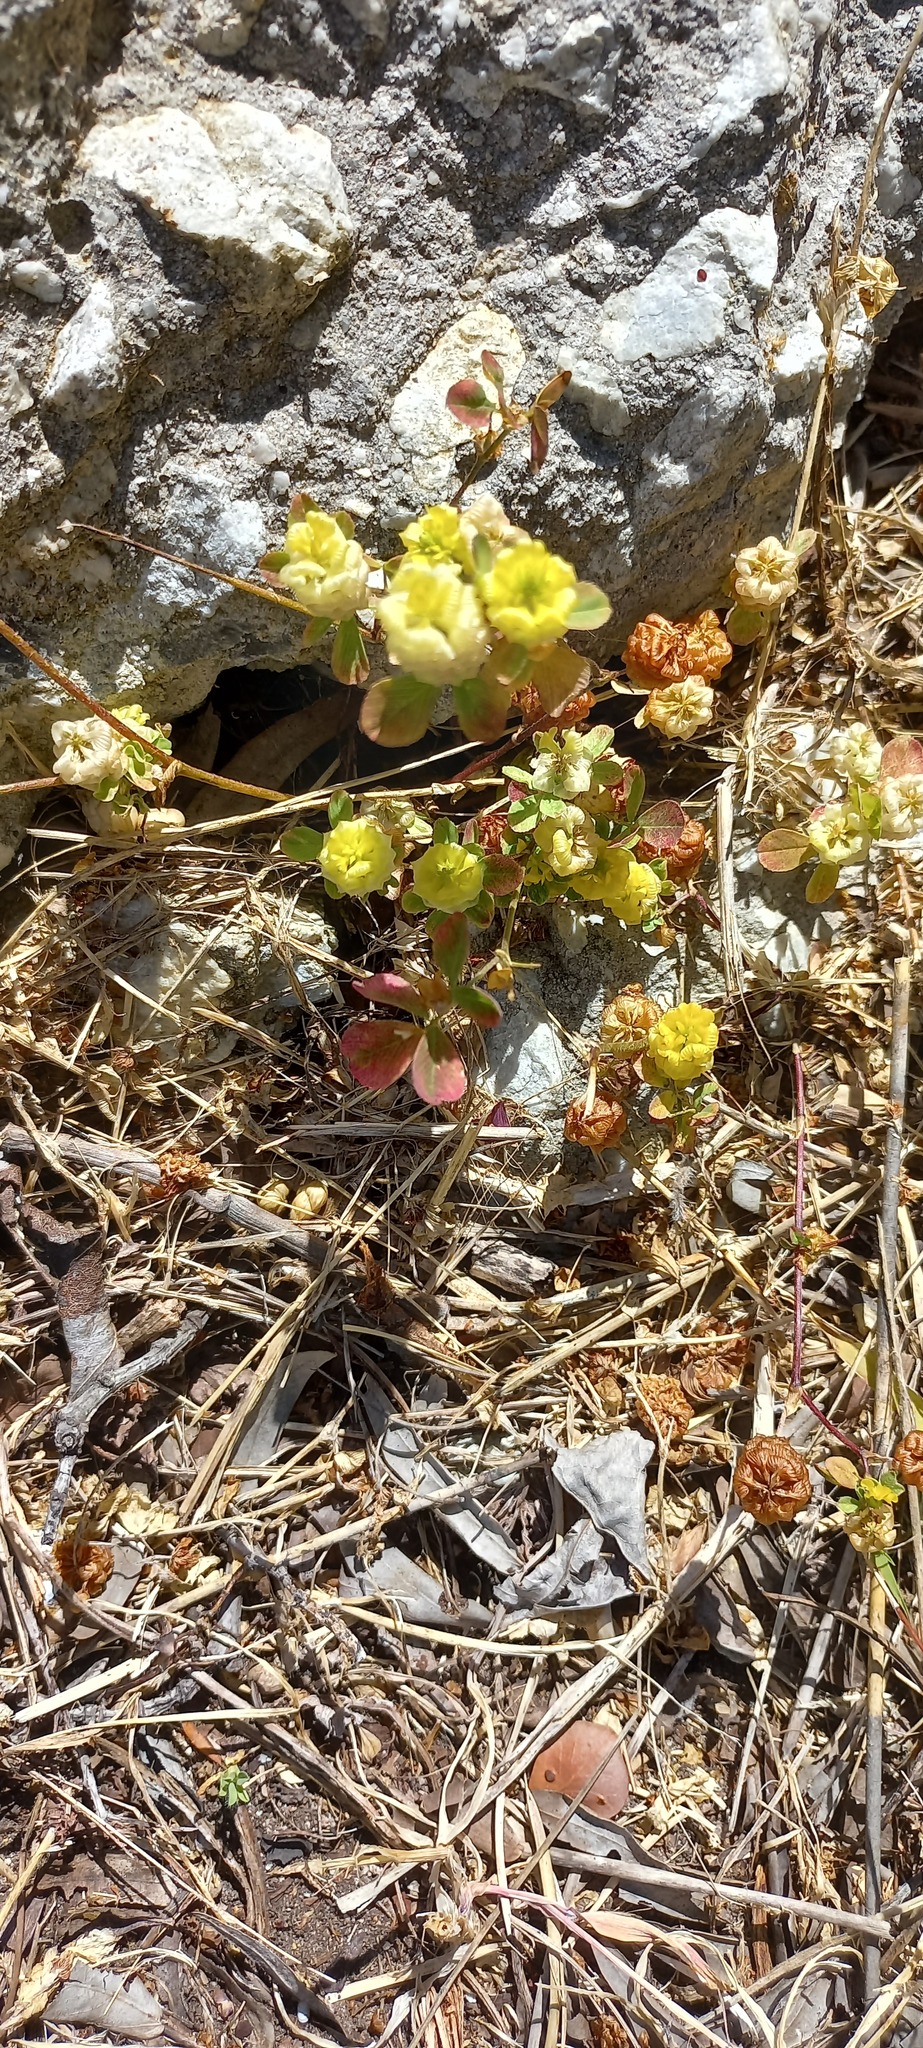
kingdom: Plantae
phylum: Tracheophyta
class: Magnoliopsida
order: Fabales
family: Fabaceae
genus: Trifolium
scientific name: Trifolium campestre
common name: Field clover
